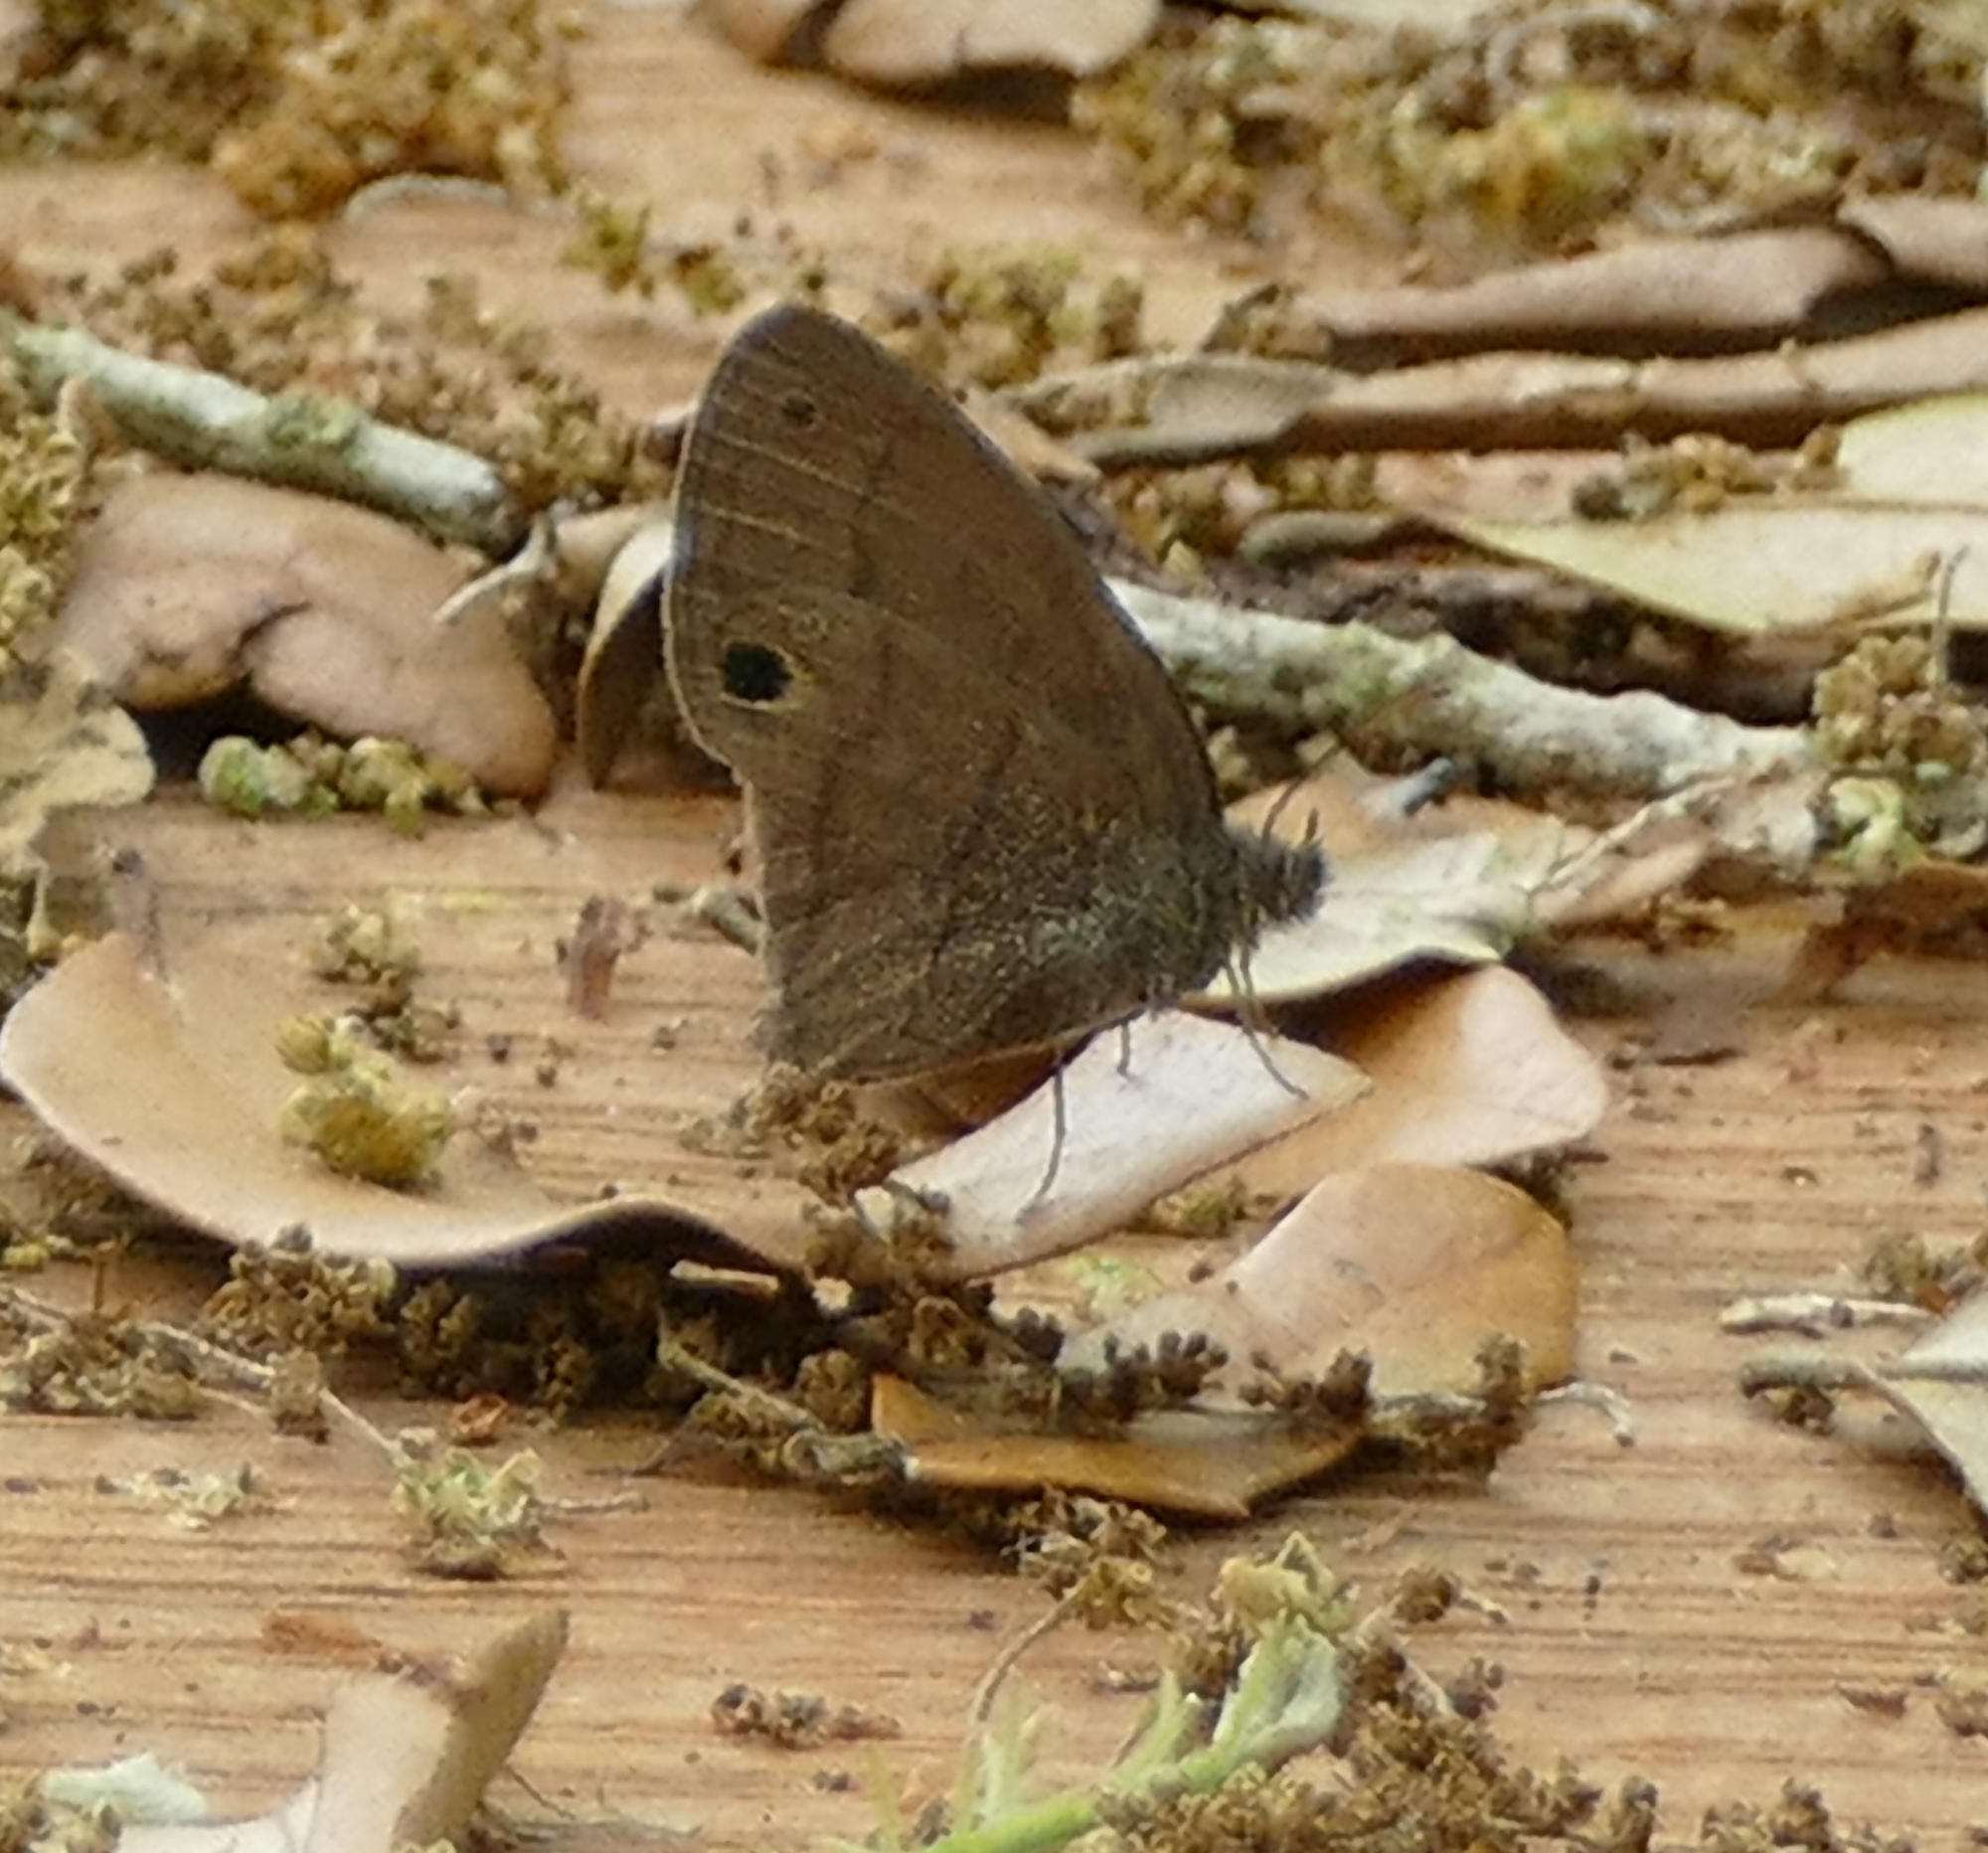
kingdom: Animalia
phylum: Arthropoda
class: Insecta
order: Lepidoptera
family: Nymphalidae
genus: Hermeuptychia
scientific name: Hermeuptychia hermybius
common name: South texas satyr
